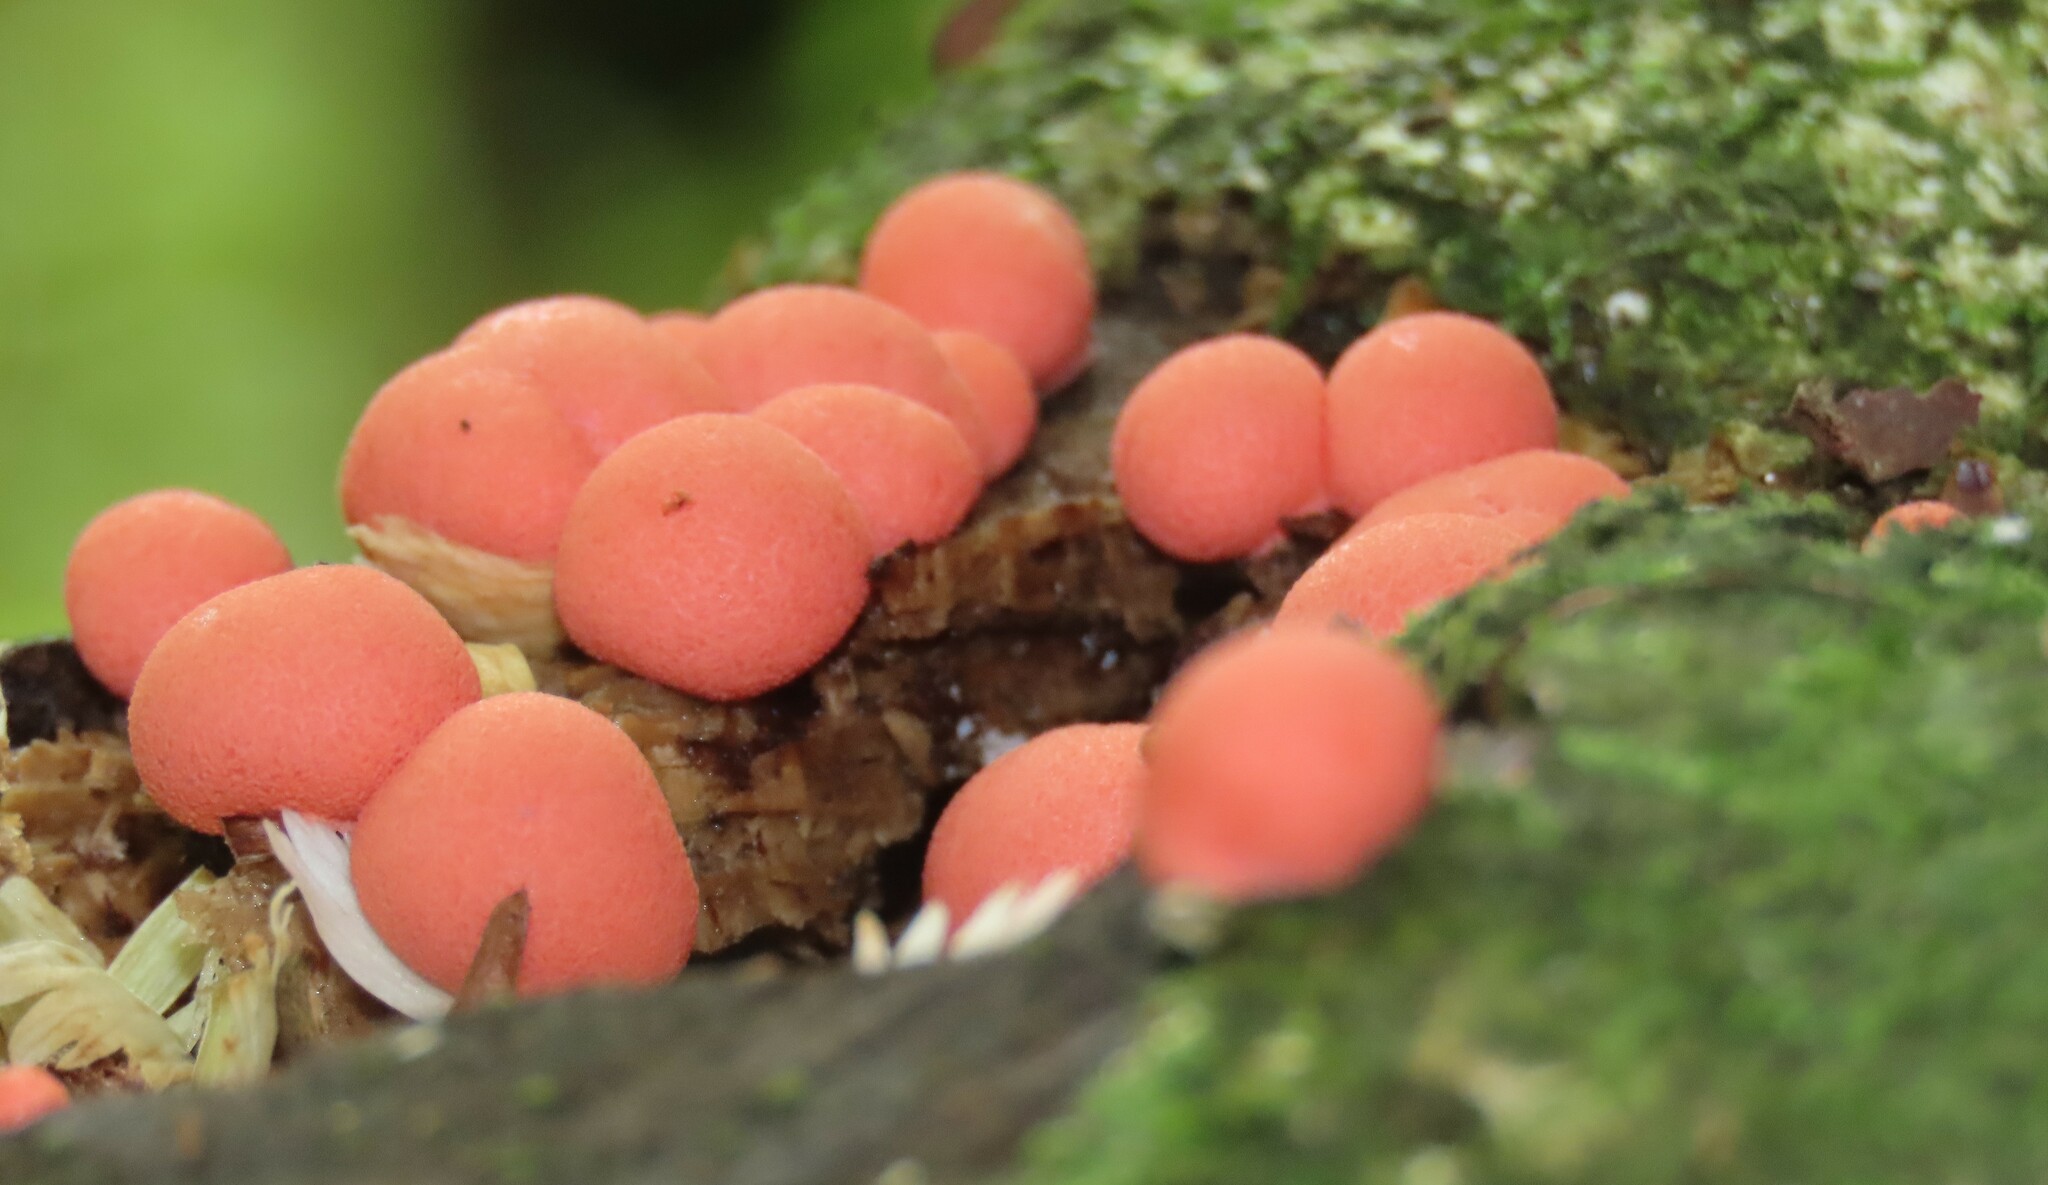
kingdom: Protozoa
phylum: Mycetozoa
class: Myxomycetes
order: Cribrariales
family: Tubiferaceae
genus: Lycogala
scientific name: Lycogala epidendrum
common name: Wolf's milk
